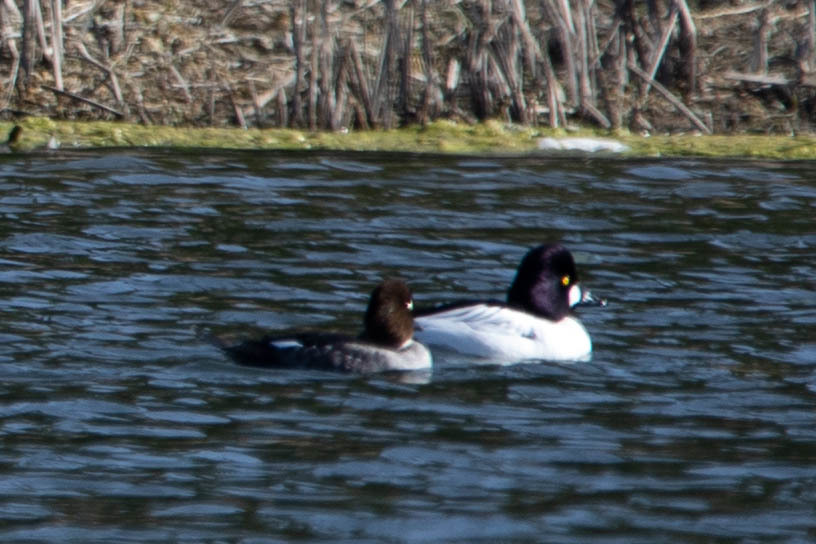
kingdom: Animalia
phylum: Chordata
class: Aves
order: Anseriformes
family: Anatidae
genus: Bucephala
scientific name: Bucephala clangula
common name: Common goldeneye
